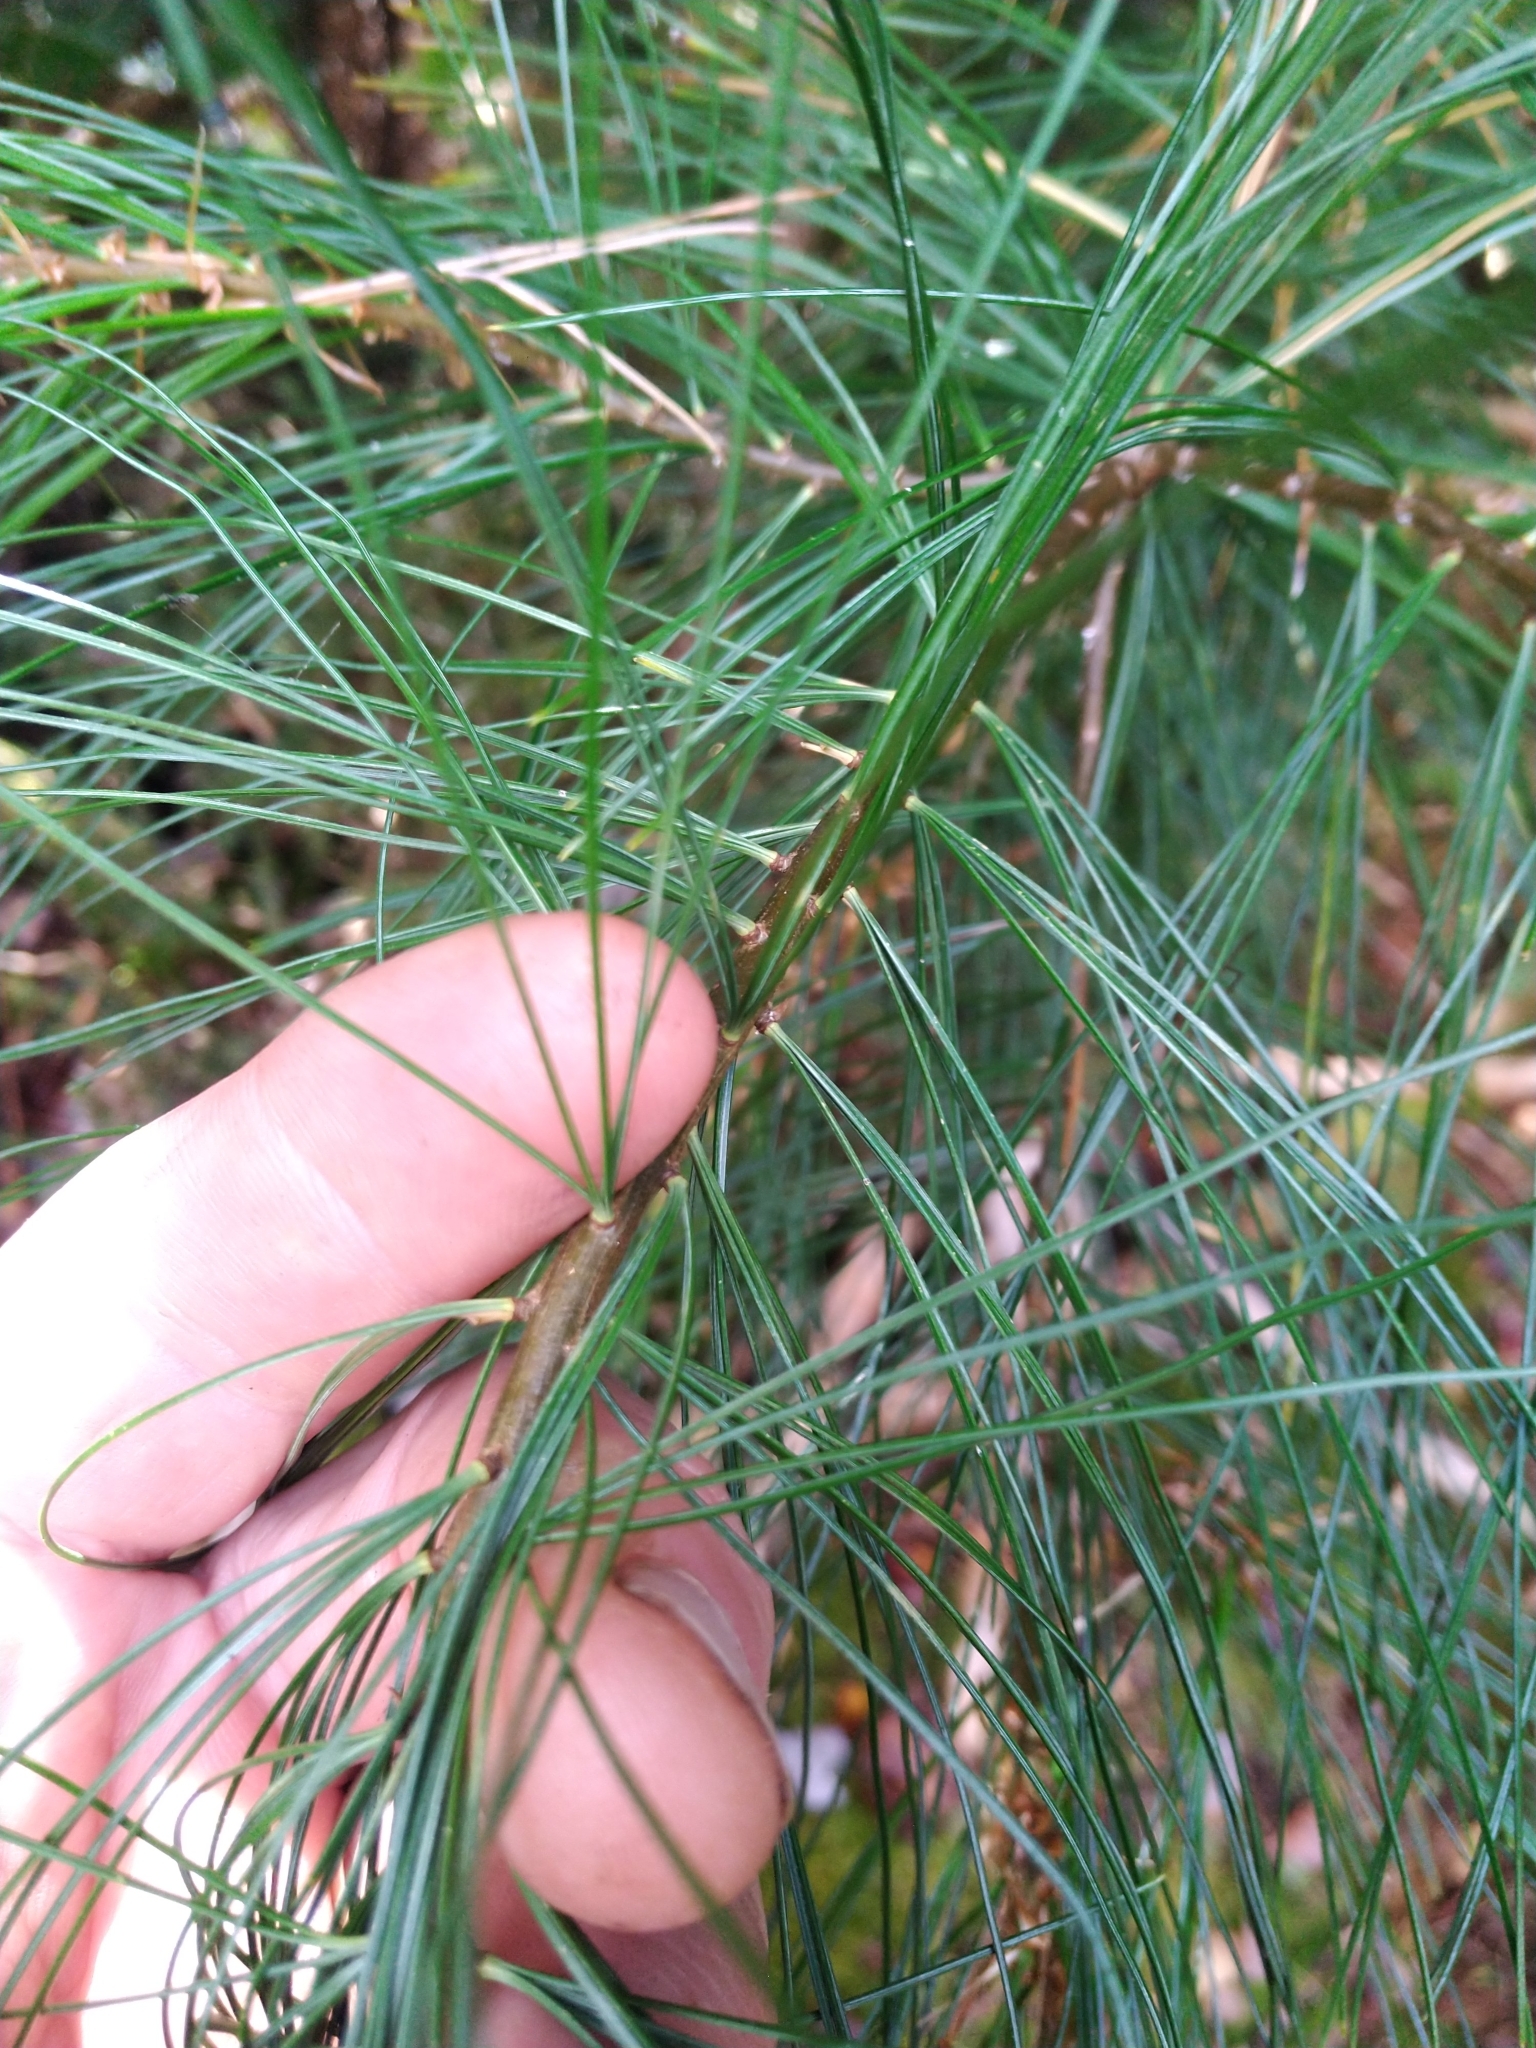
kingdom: Plantae
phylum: Tracheophyta
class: Pinopsida
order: Pinales
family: Pinaceae
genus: Pinus
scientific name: Pinus strobus
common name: Weymouth pine
